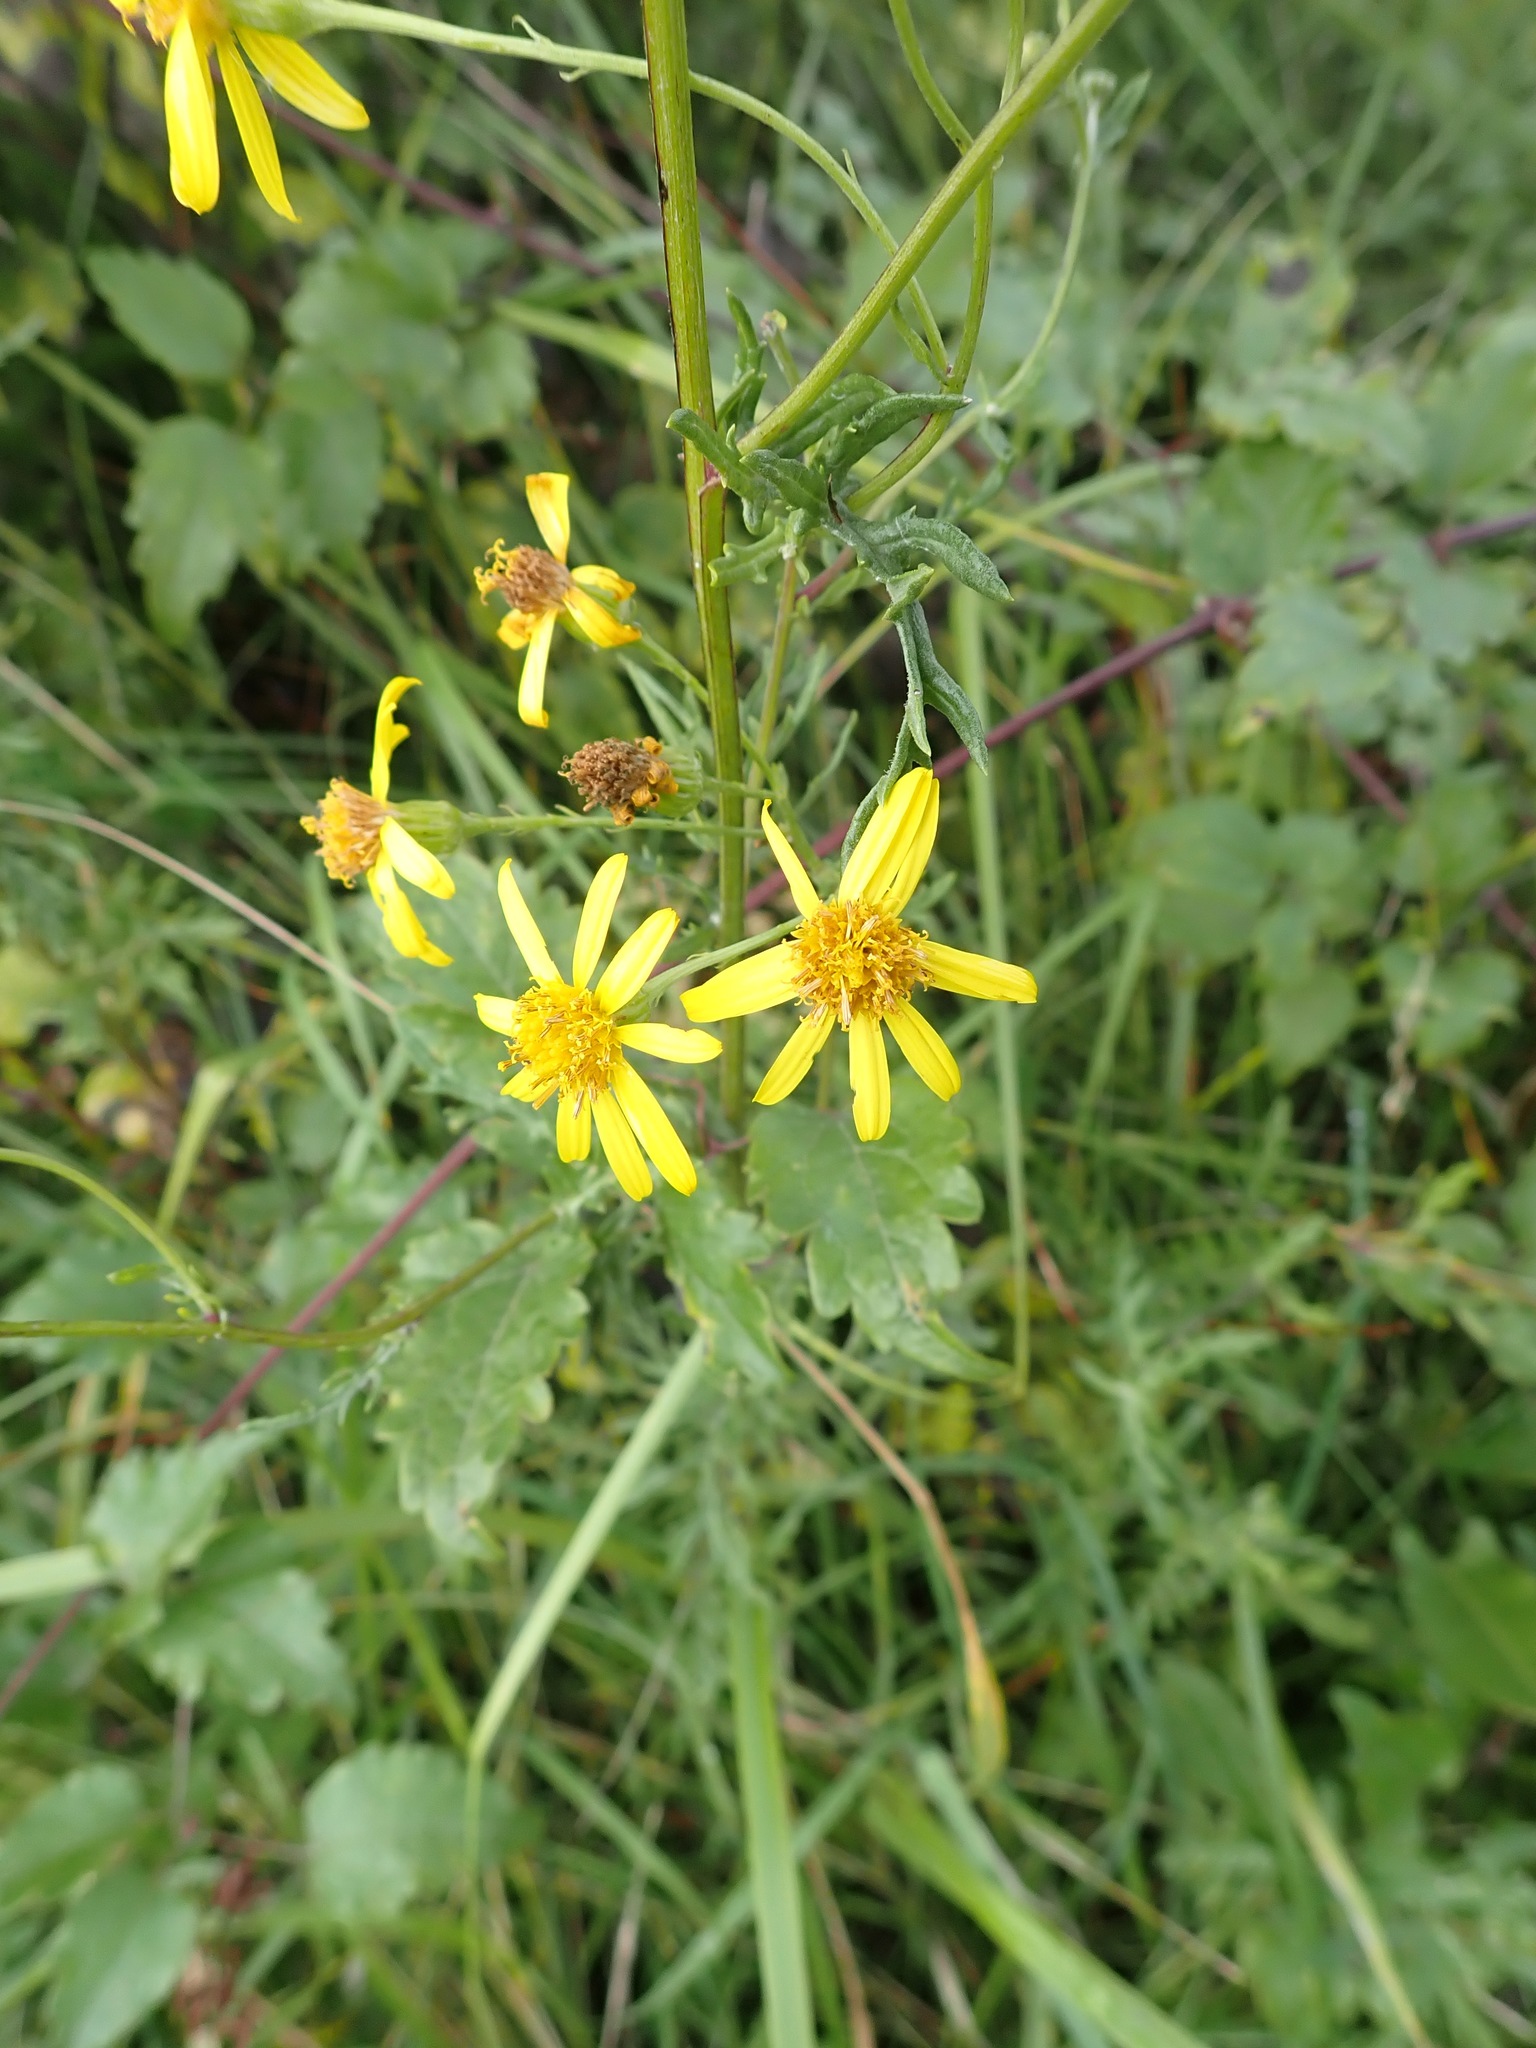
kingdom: Plantae
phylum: Tracheophyta
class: Magnoliopsida
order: Asterales
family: Asteraceae
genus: Jacobaea
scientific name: Jacobaea vulgaris
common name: Stinking willie
